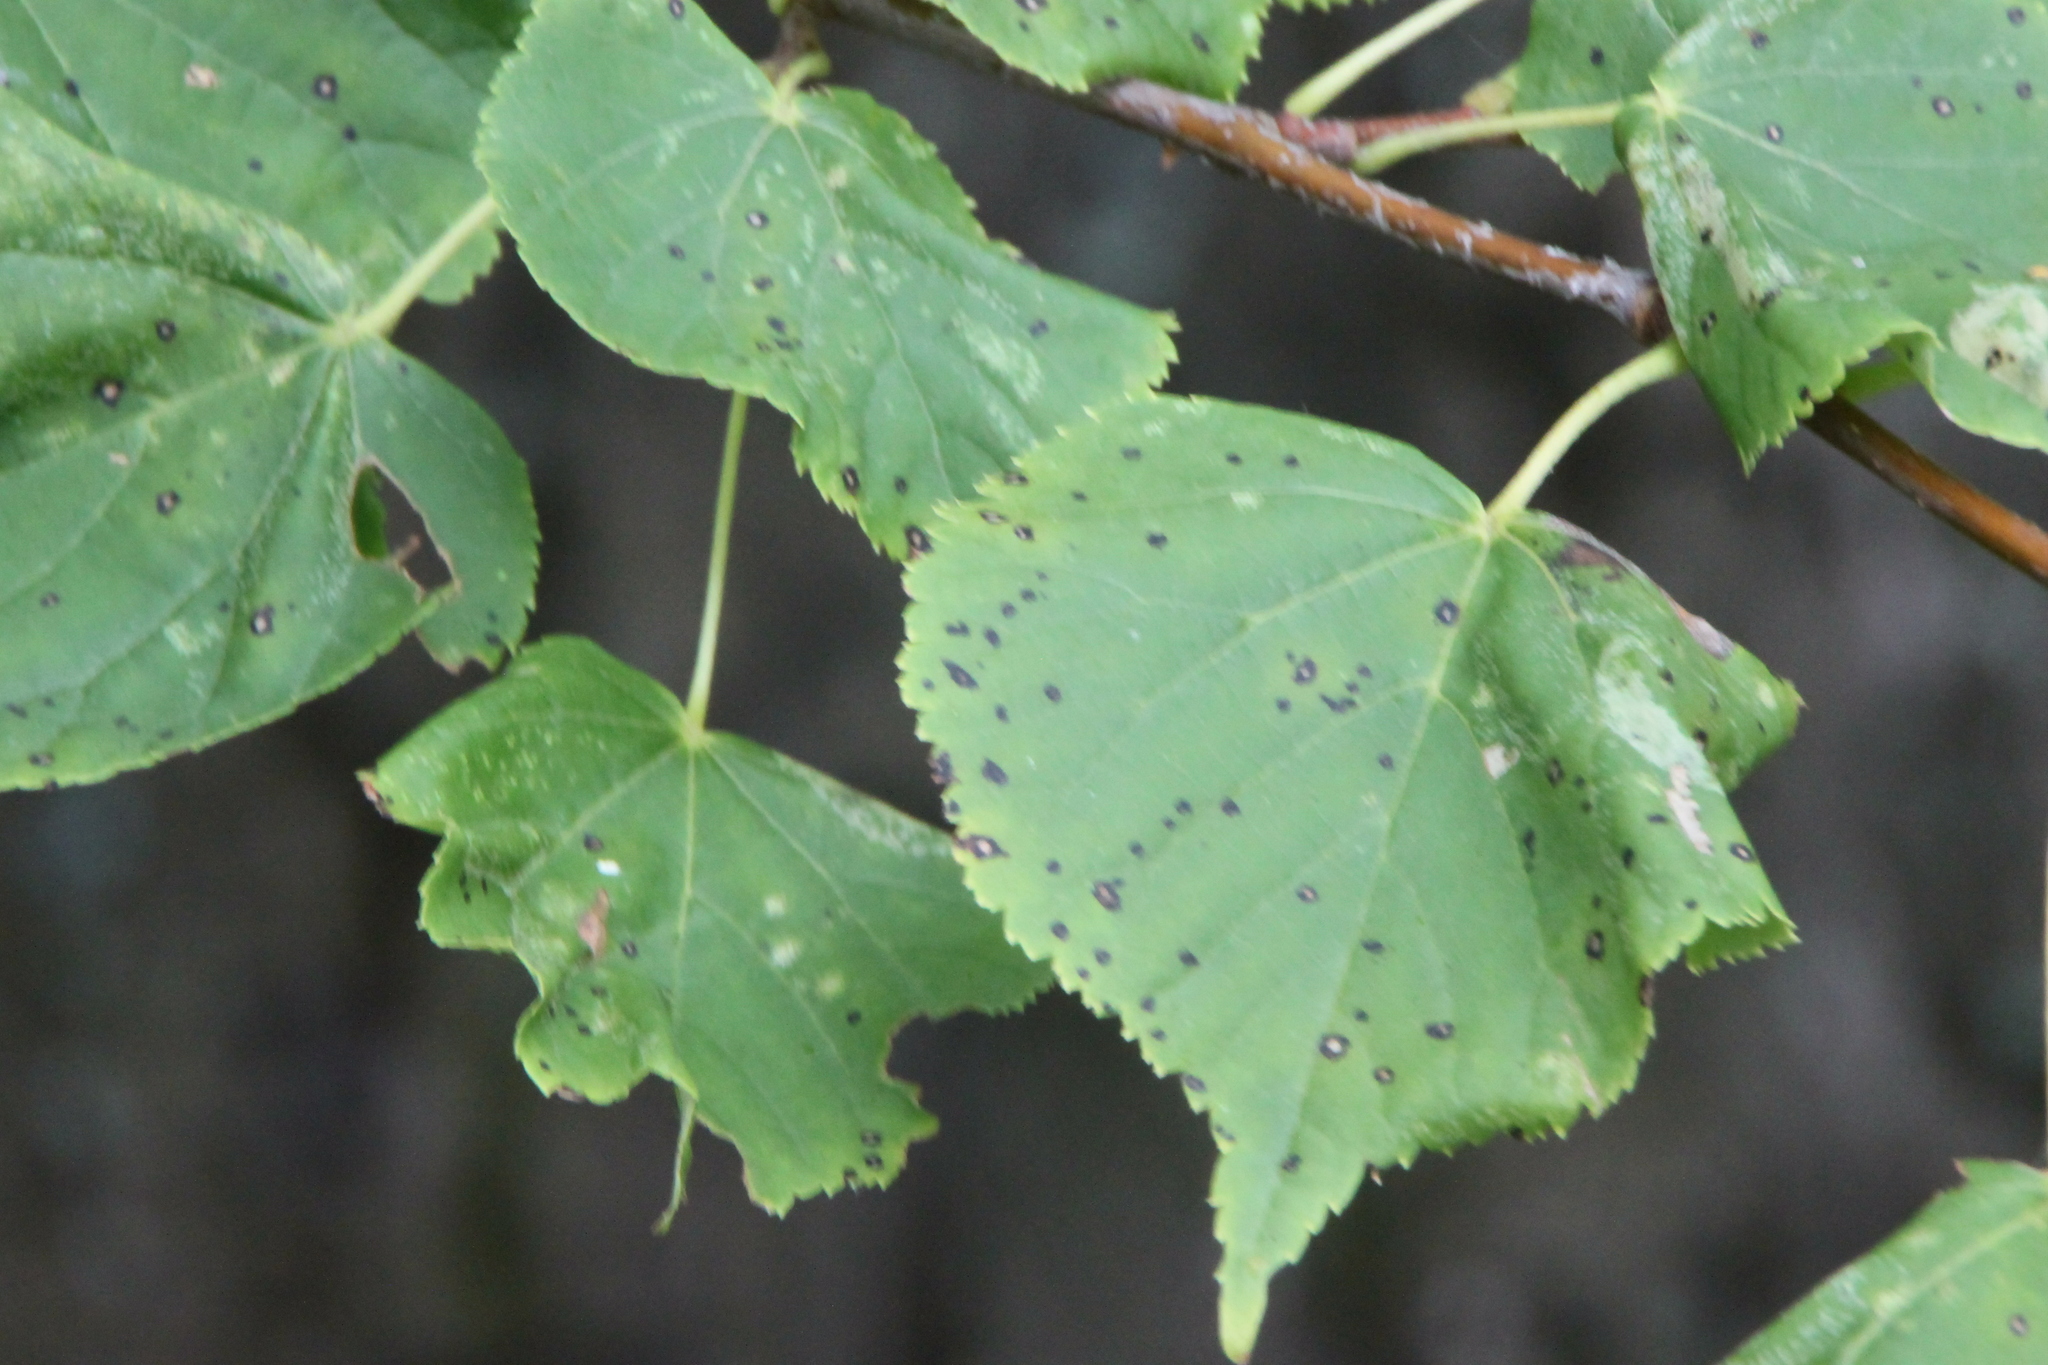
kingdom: Plantae
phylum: Tracheophyta
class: Magnoliopsida
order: Malvales
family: Malvaceae
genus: Tilia
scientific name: Tilia cordata
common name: Small-leaved lime
